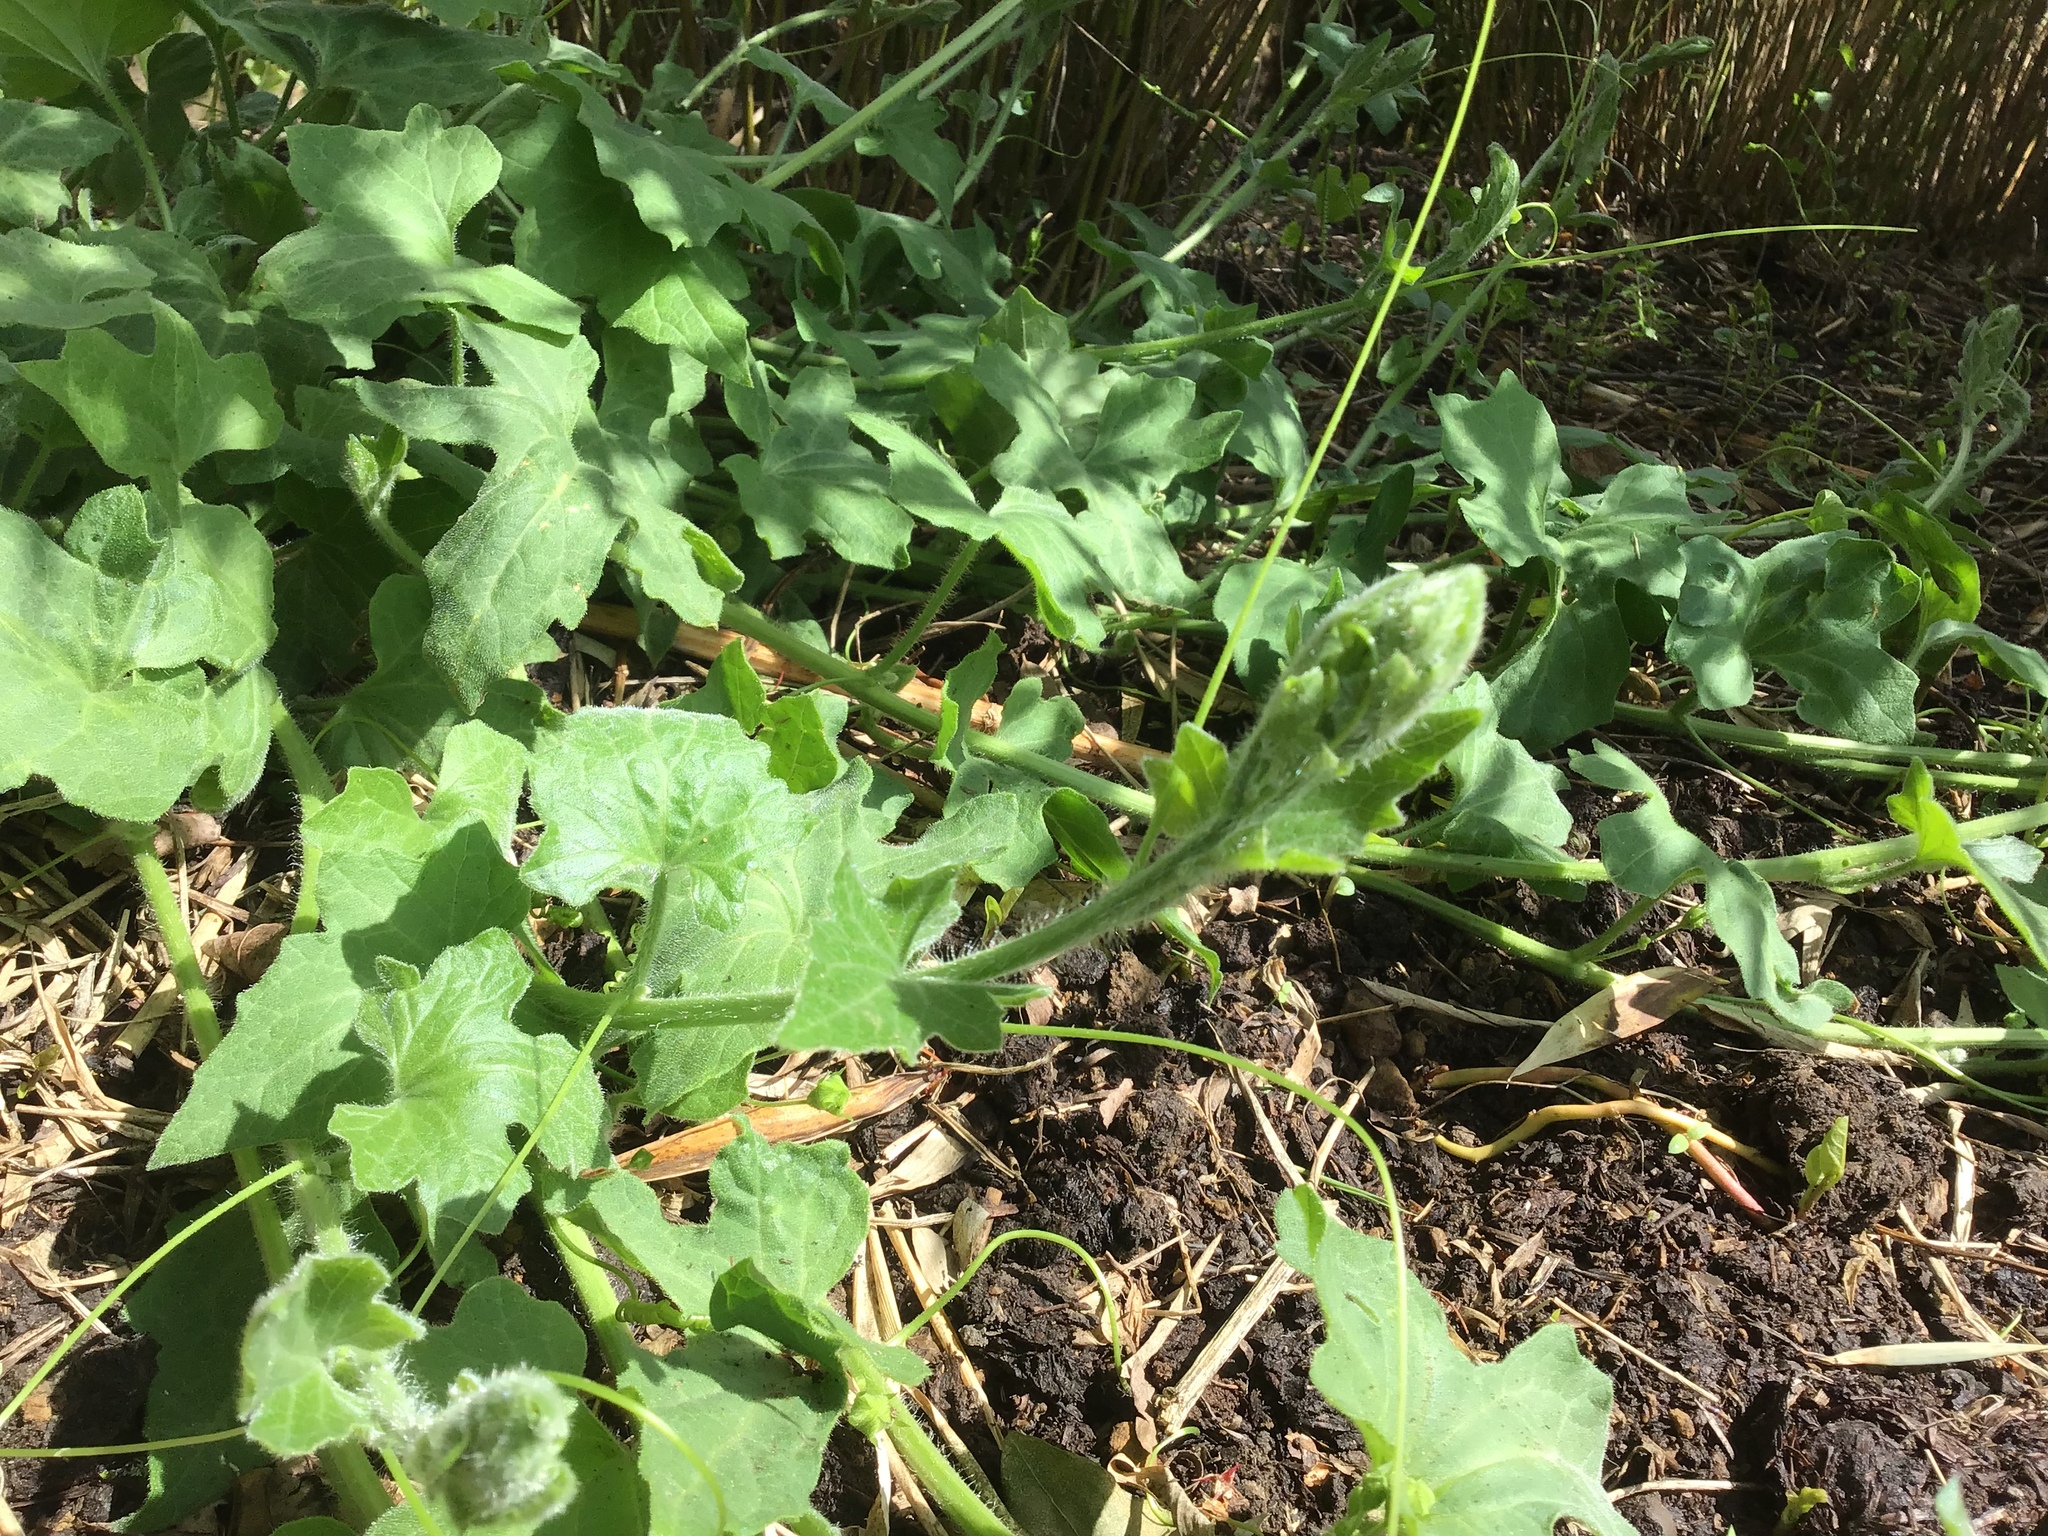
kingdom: Plantae
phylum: Tracheophyta
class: Magnoliopsida
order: Cucurbitales
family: Cucurbitaceae
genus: Bryonia
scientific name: Bryonia dioica
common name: White bryony
